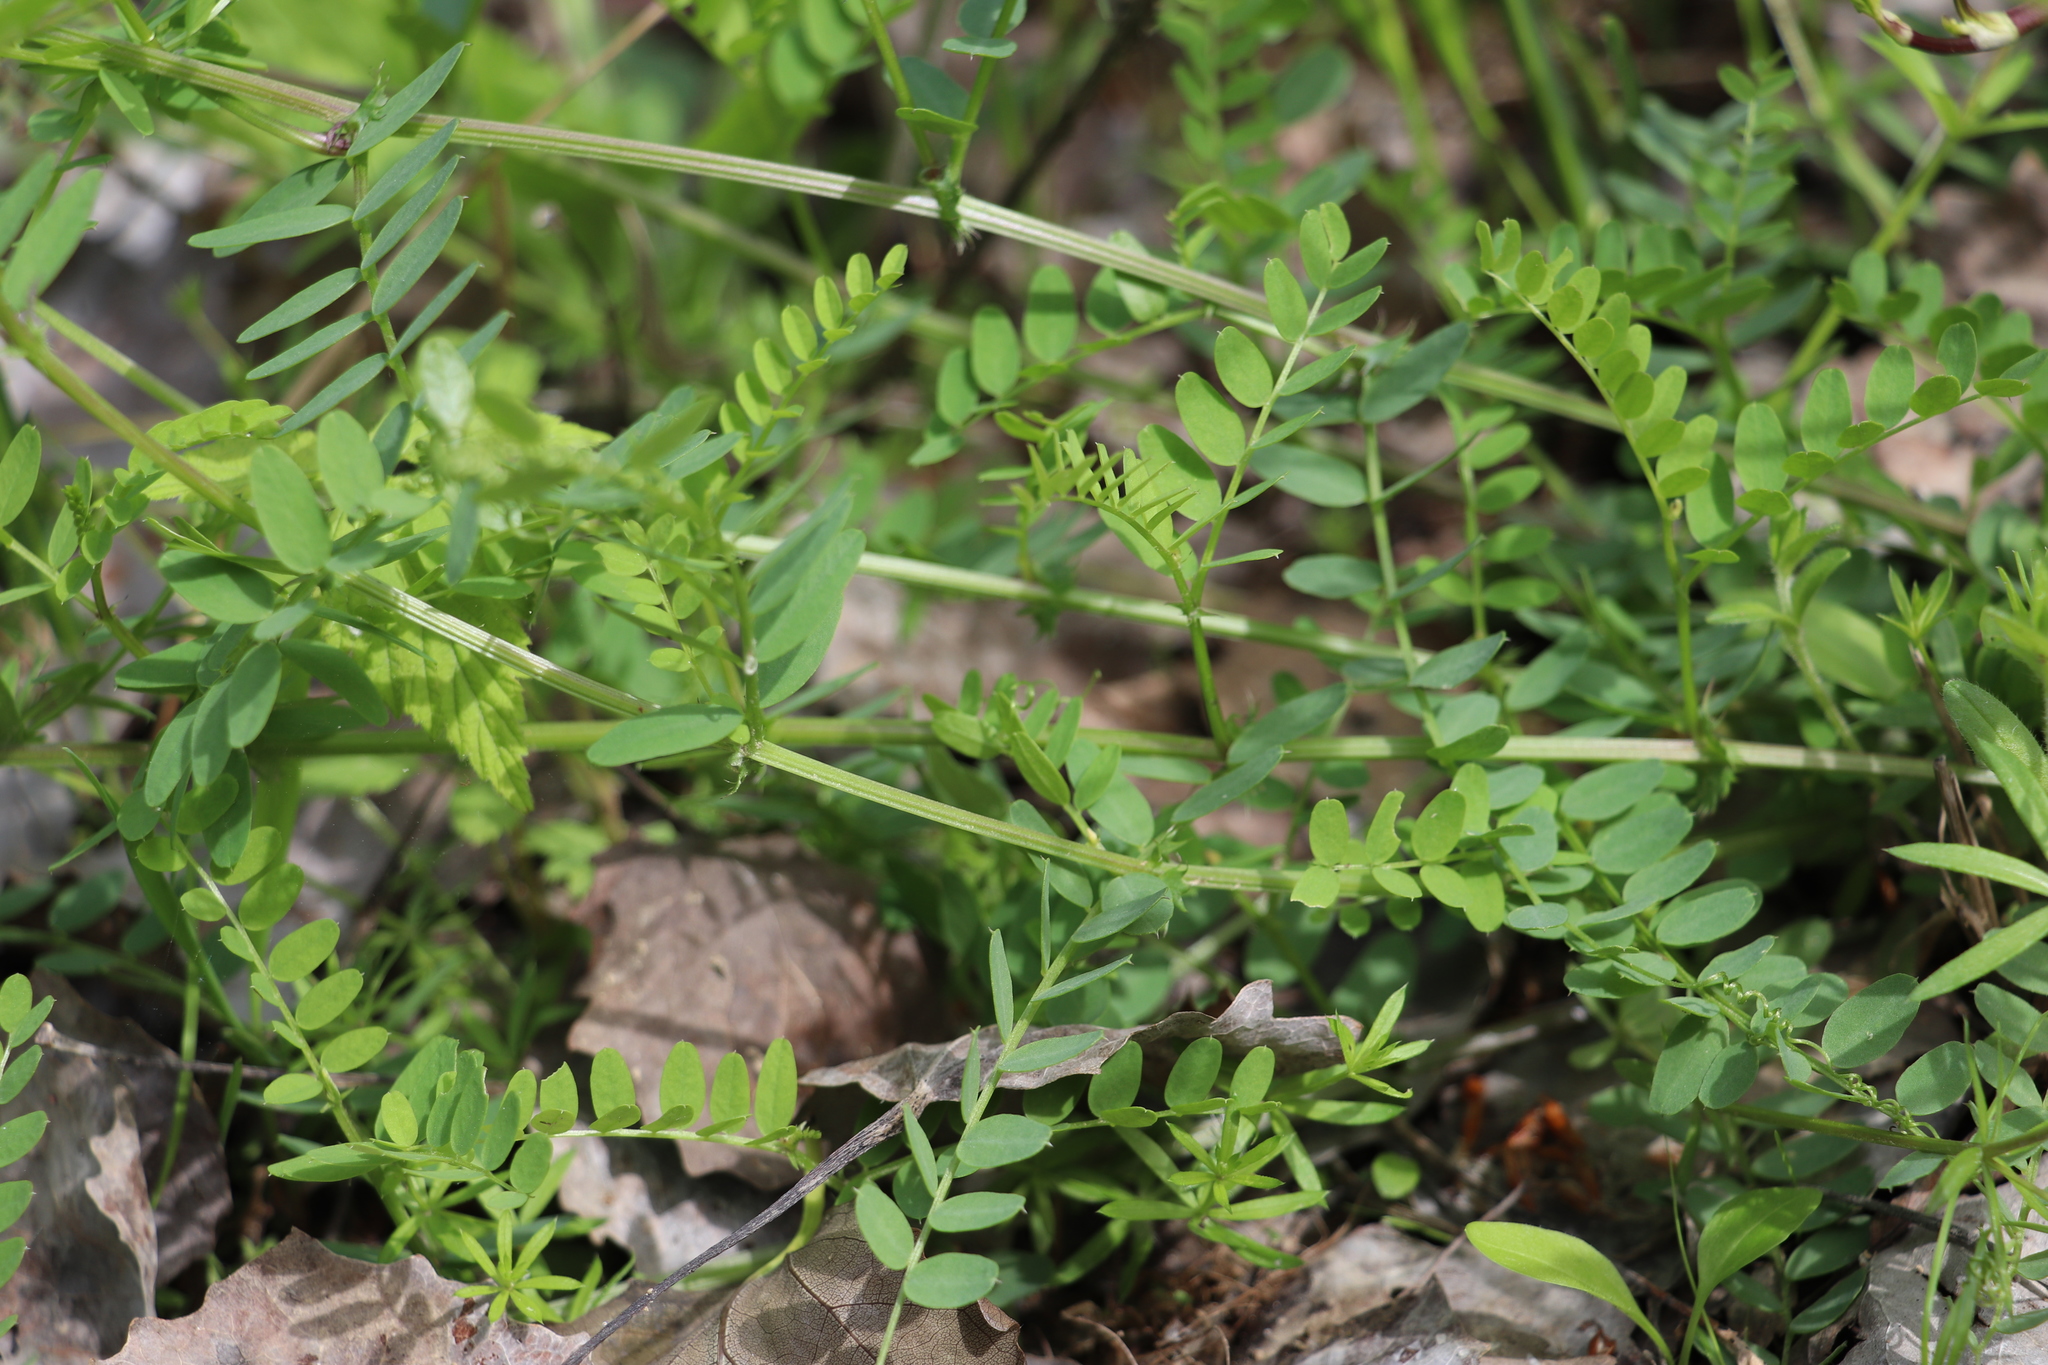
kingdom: Plantae
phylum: Tracheophyta
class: Magnoliopsida
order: Fabales
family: Fabaceae
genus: Vicia
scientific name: Vicia sylvatica
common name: Wood vetch
